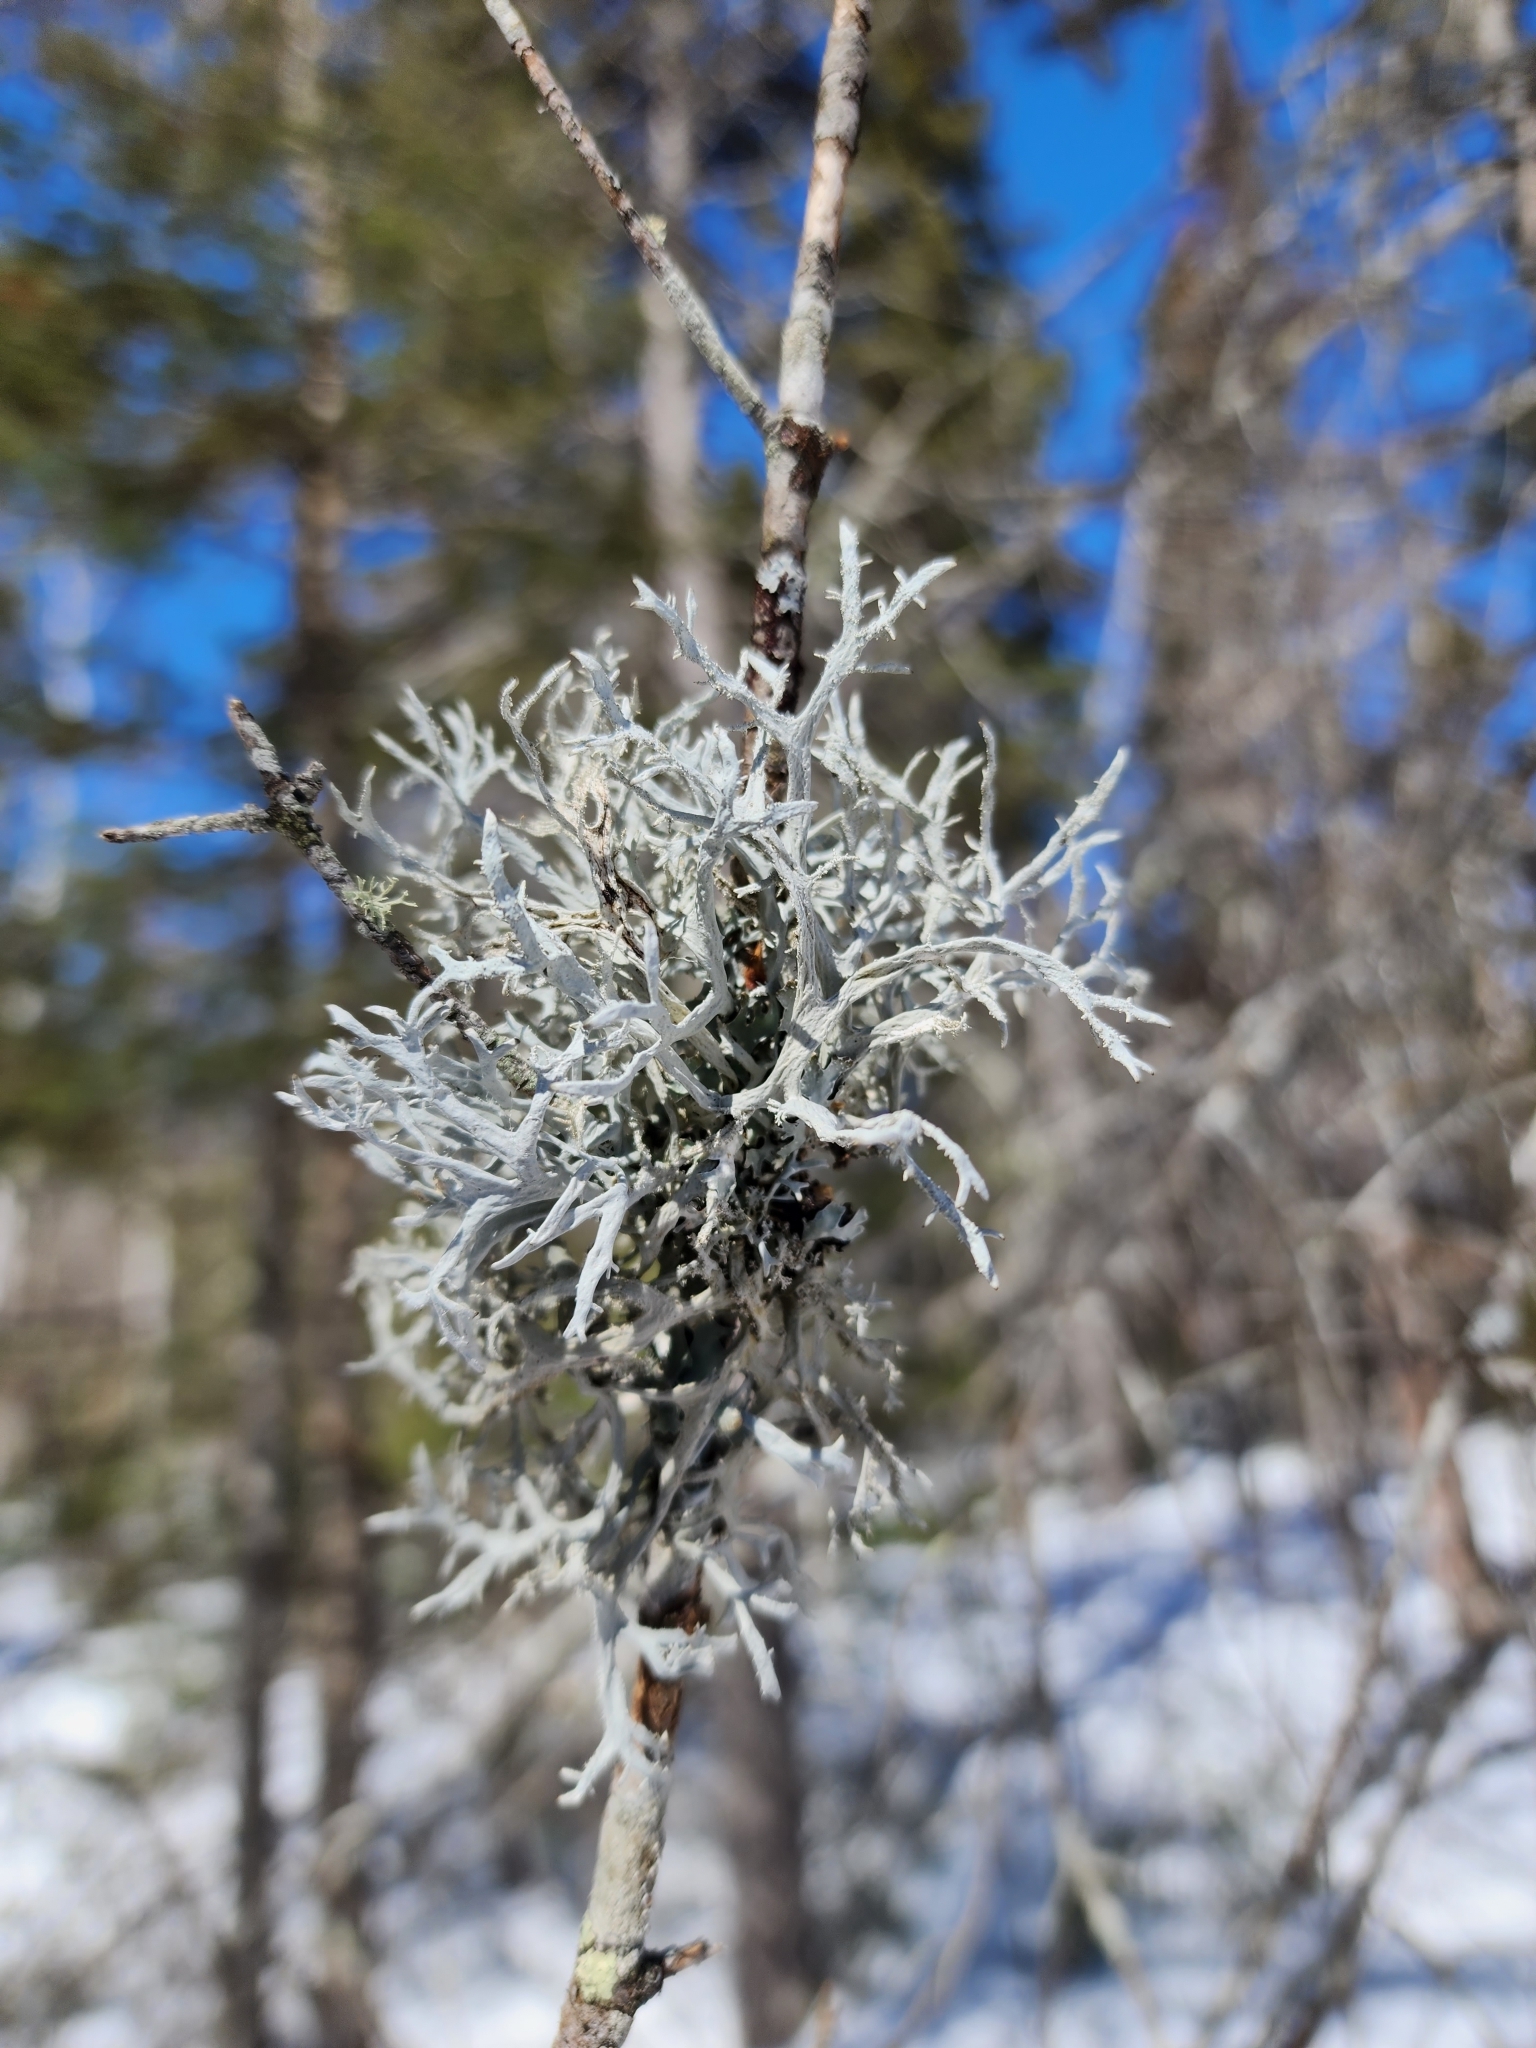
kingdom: Fungi
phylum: Ascomycota
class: Lecanoromycetes
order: Lecanorales
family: Parmeliaceae
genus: Pseudevernia
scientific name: Pseudevernia consocians
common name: Common antler lichen
